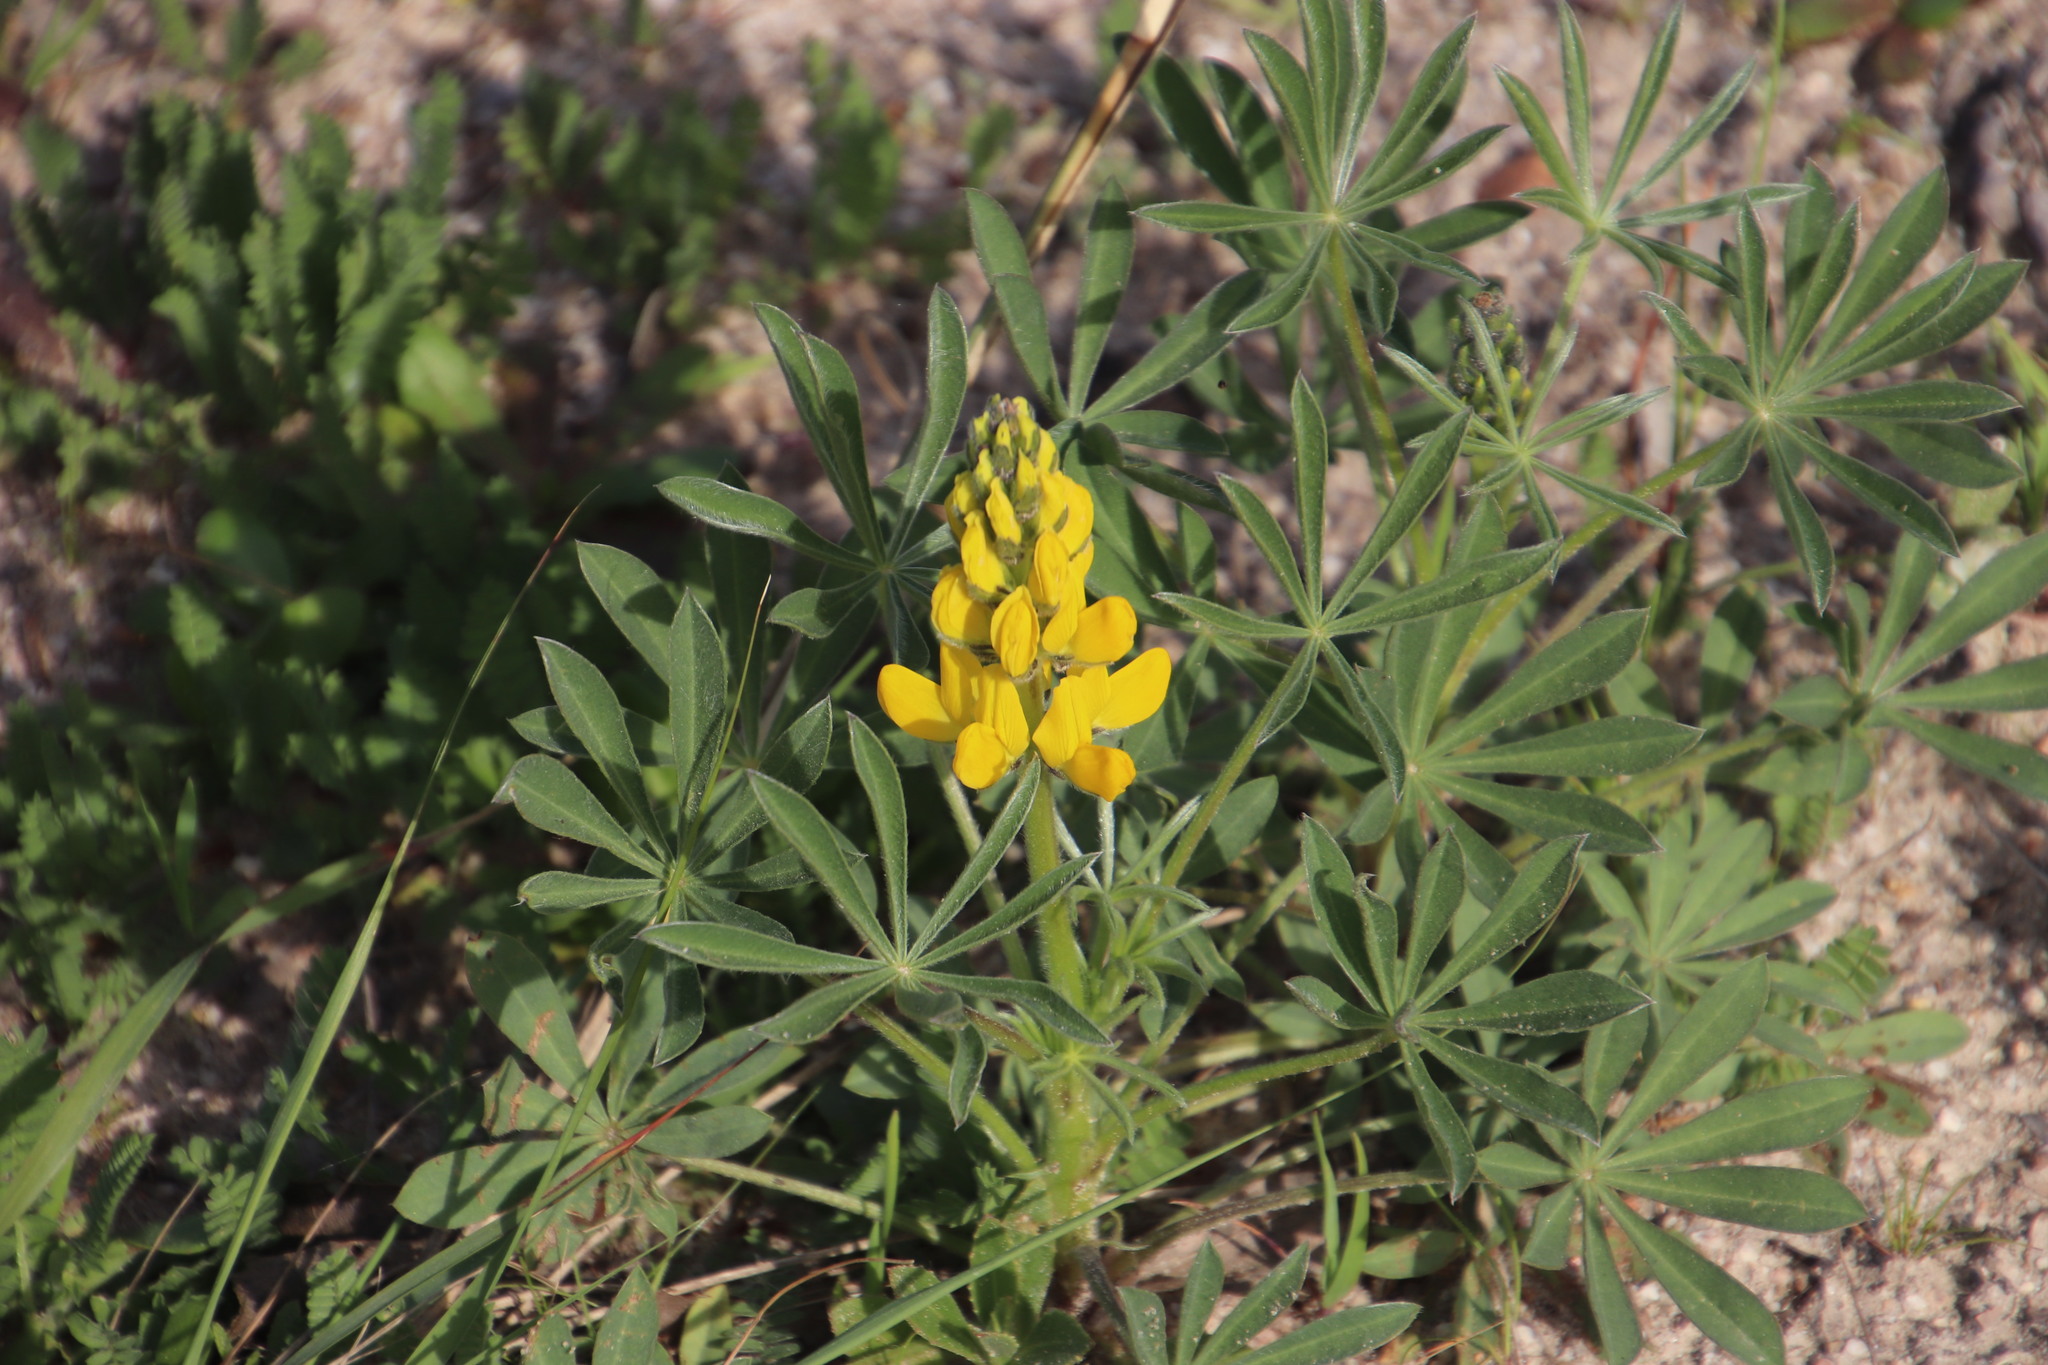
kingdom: Plantae
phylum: Tracheophyta
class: Magnoliopsida
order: Fabales
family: Fabaceae
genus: Lupinus
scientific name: Lupinus luteus
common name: European yellow lupine
